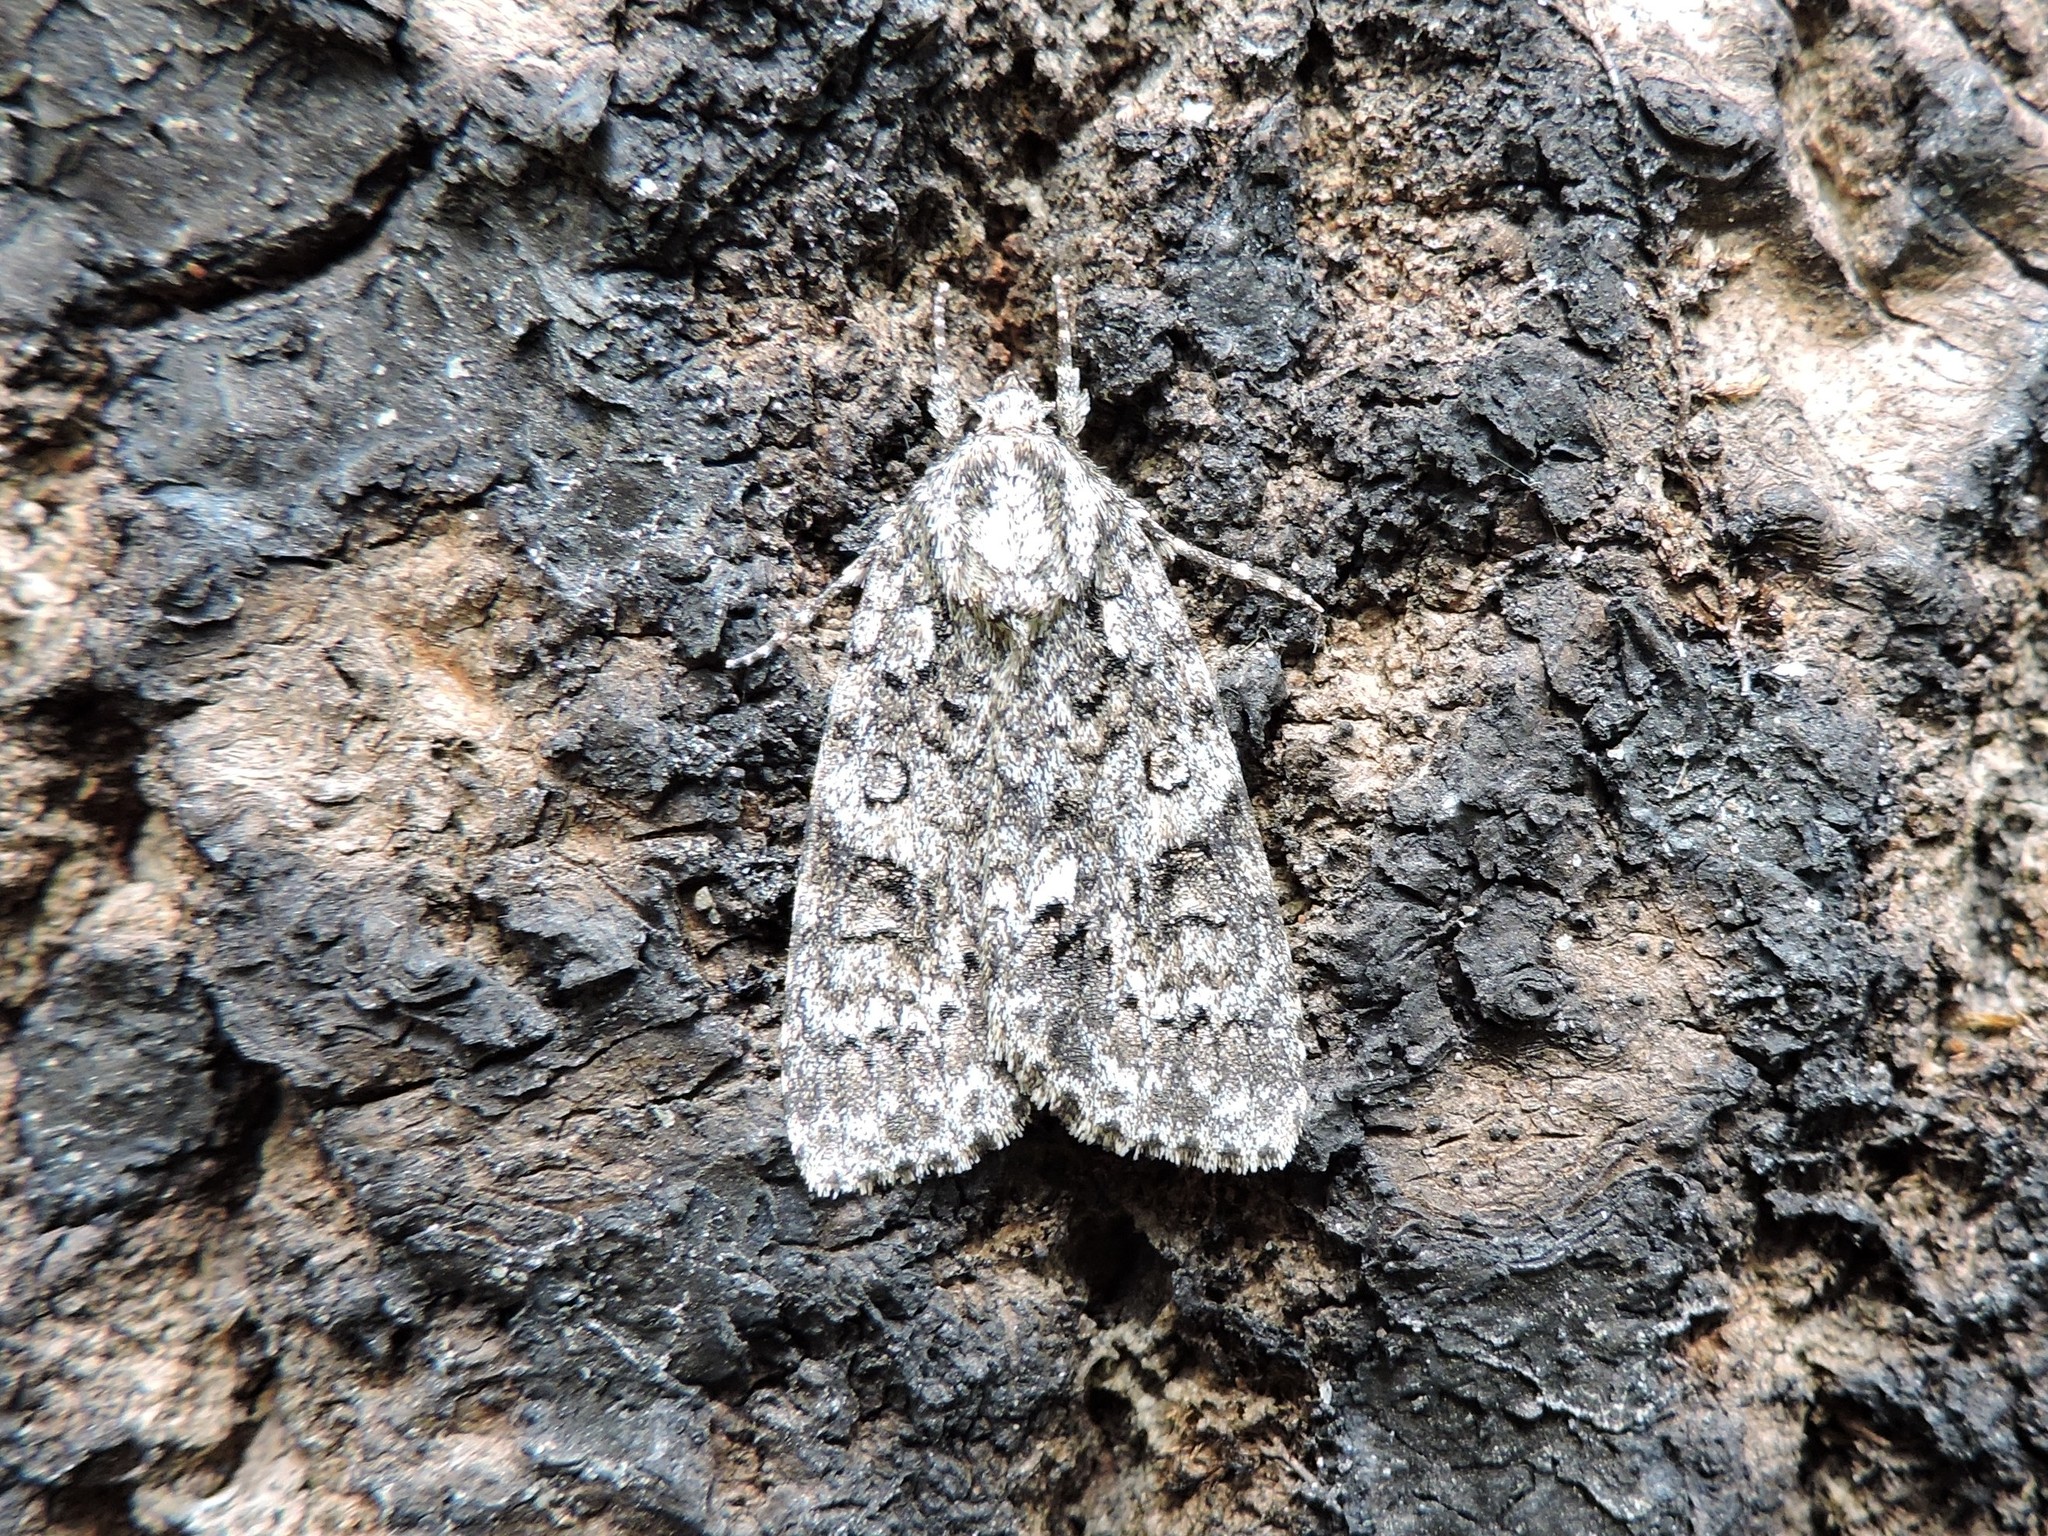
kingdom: Animalia
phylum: Arthropoda
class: Insecta
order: Lepidoptera
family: Noctuidae
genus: Acronicta
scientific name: Acronicta rumicis
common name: Knot grass
